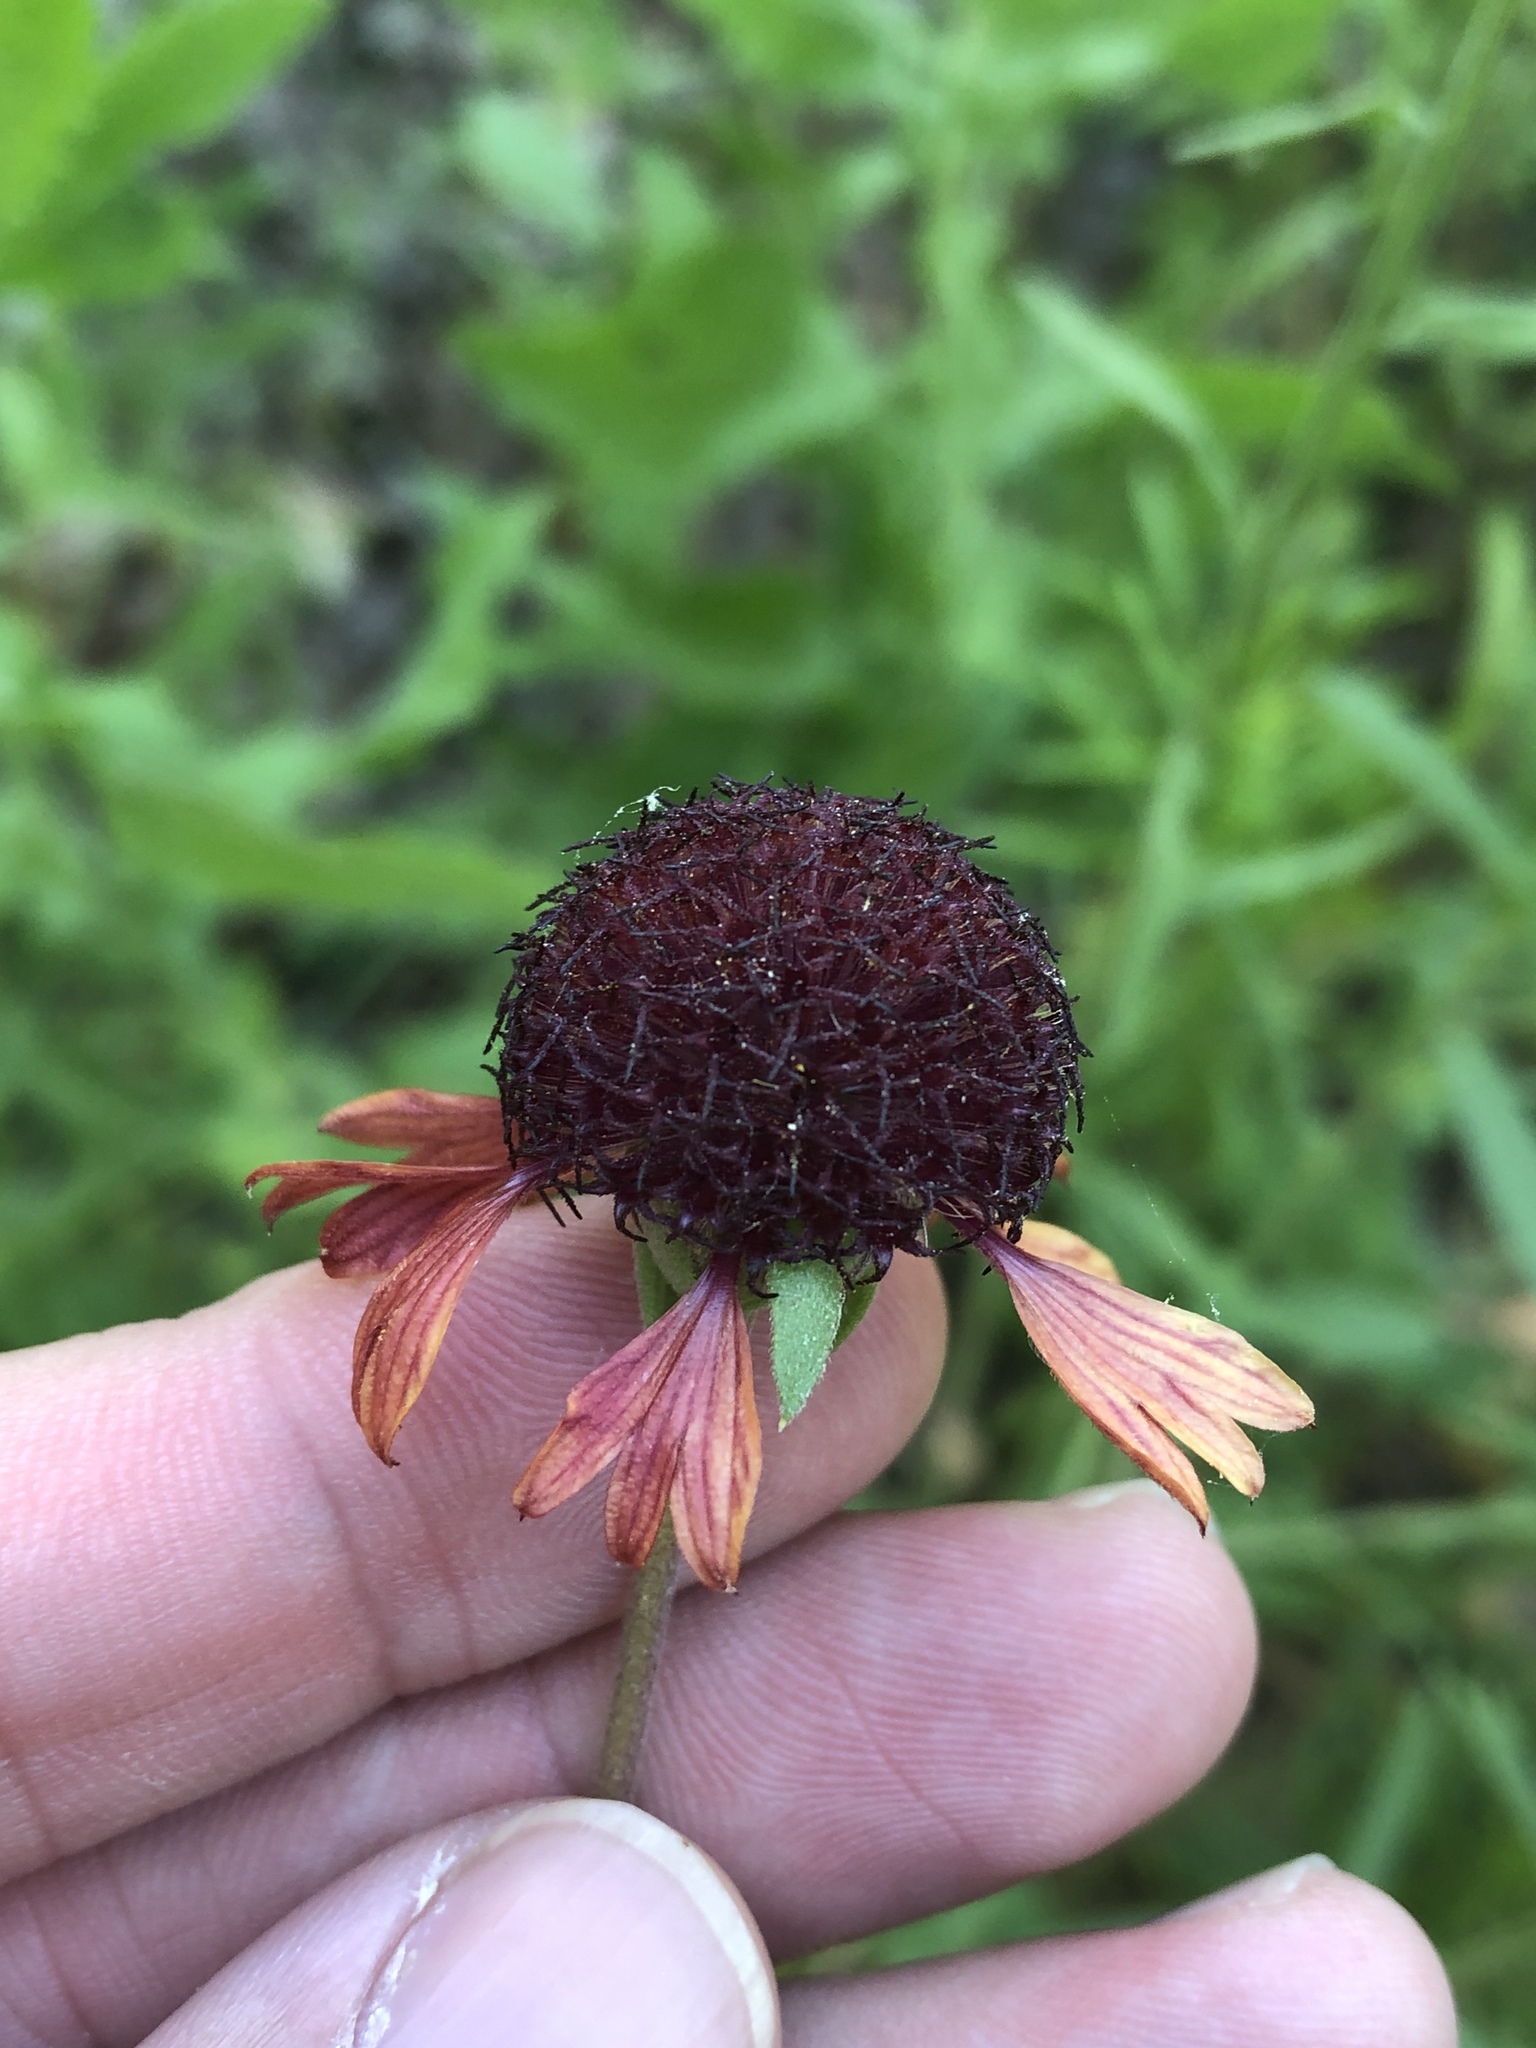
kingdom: Plantae
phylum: Tracheophyta
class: Magnoliopsida
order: Asterales
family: Asteraceae
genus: Gaillardia
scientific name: Gaillardia aestivalis
